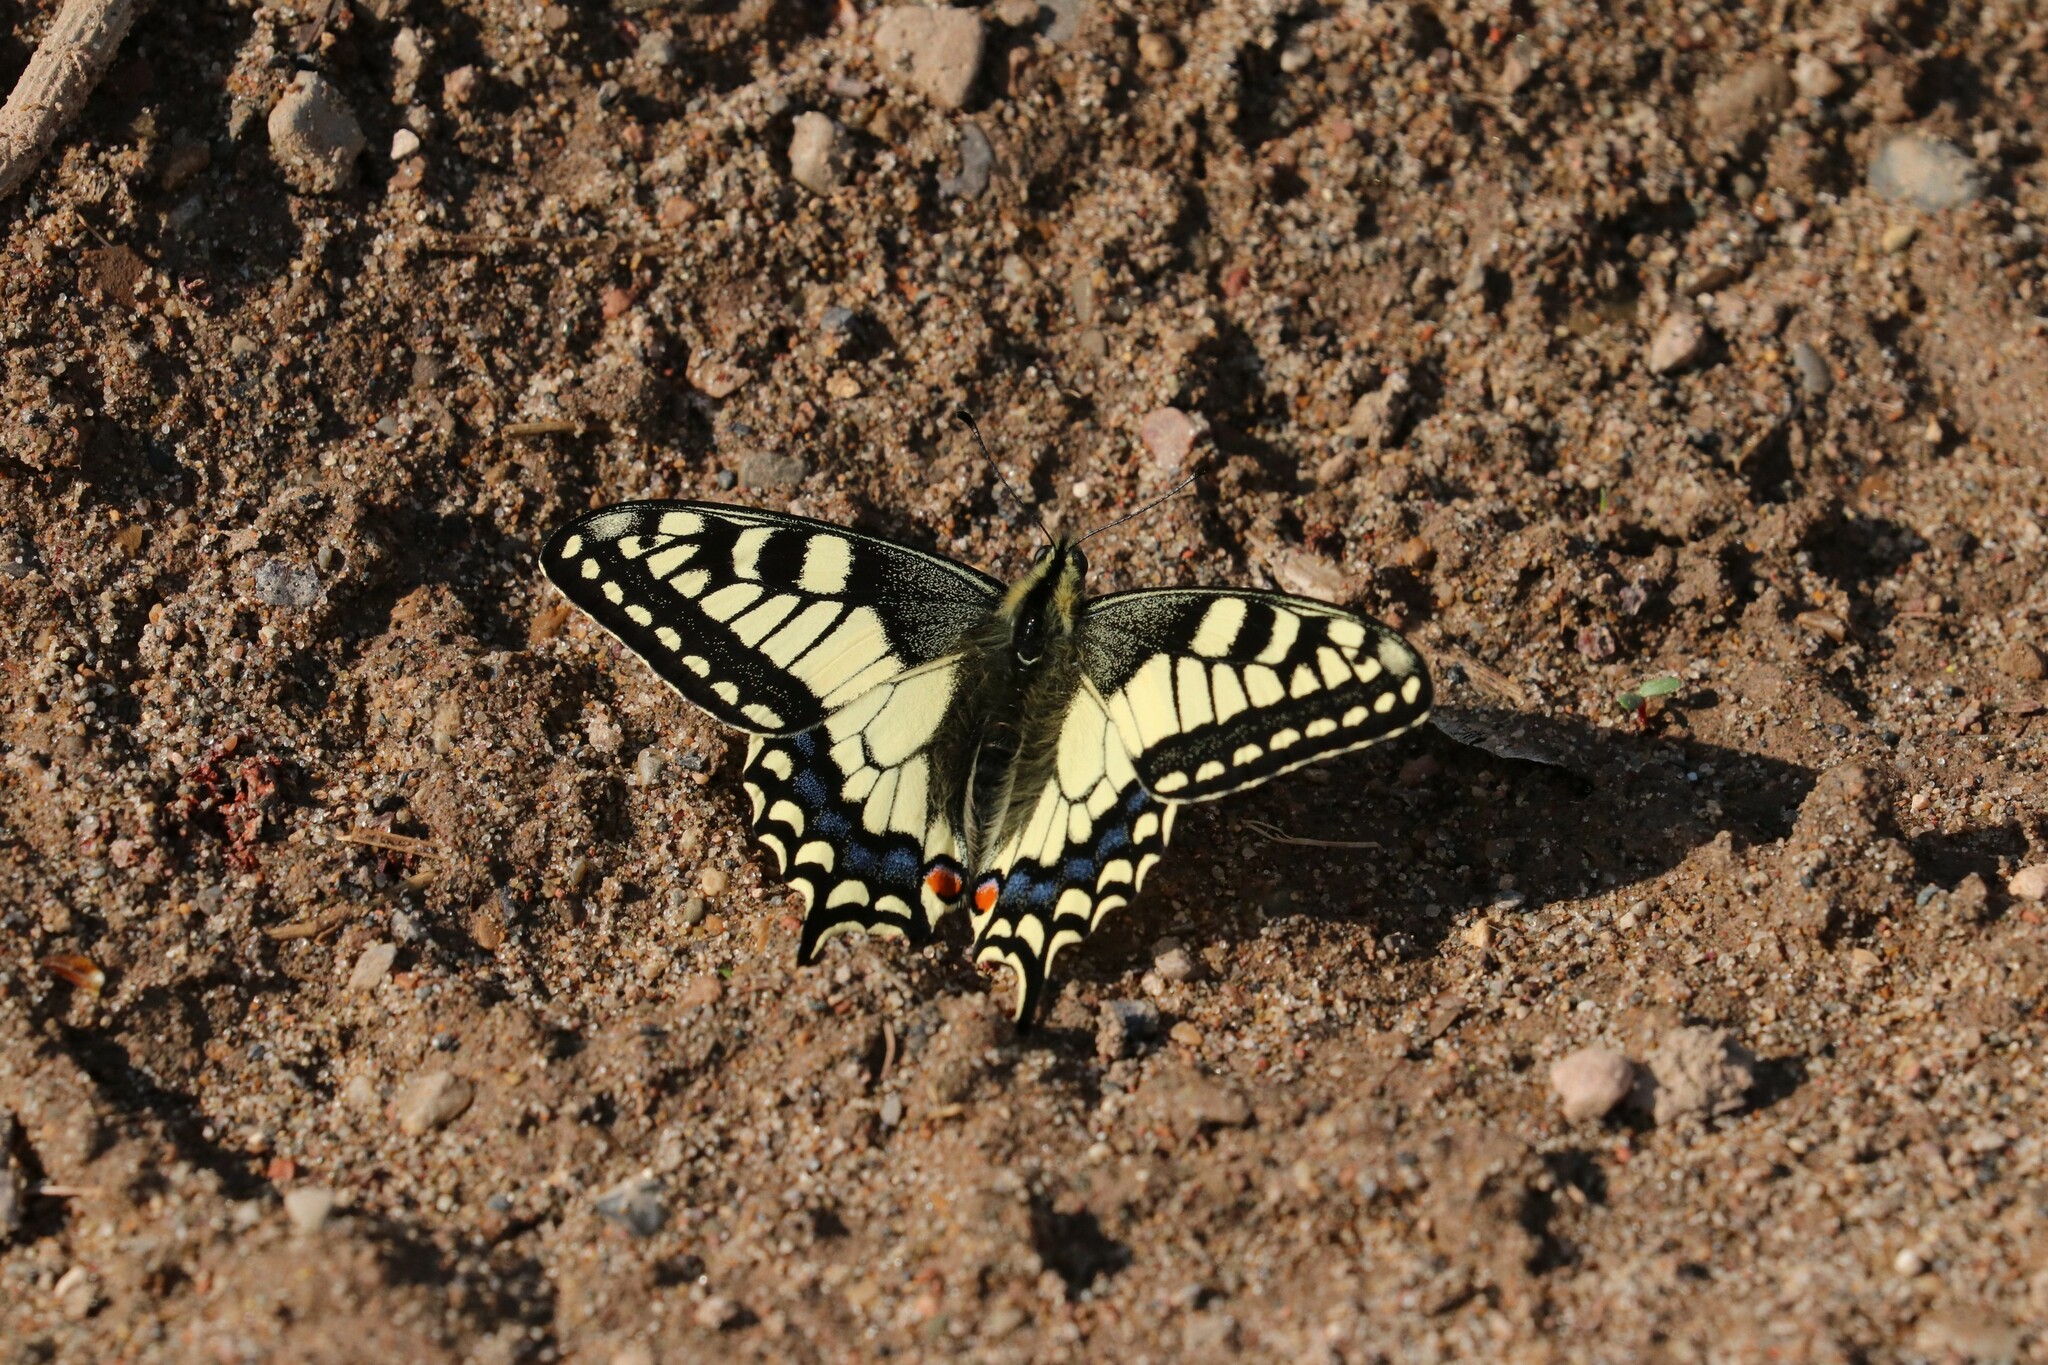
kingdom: Animalia
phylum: Arthropoda
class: Insecta
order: Lepidoptera
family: Papilionidae
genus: Papilio
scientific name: Papilio machaon
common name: Swallowtail
